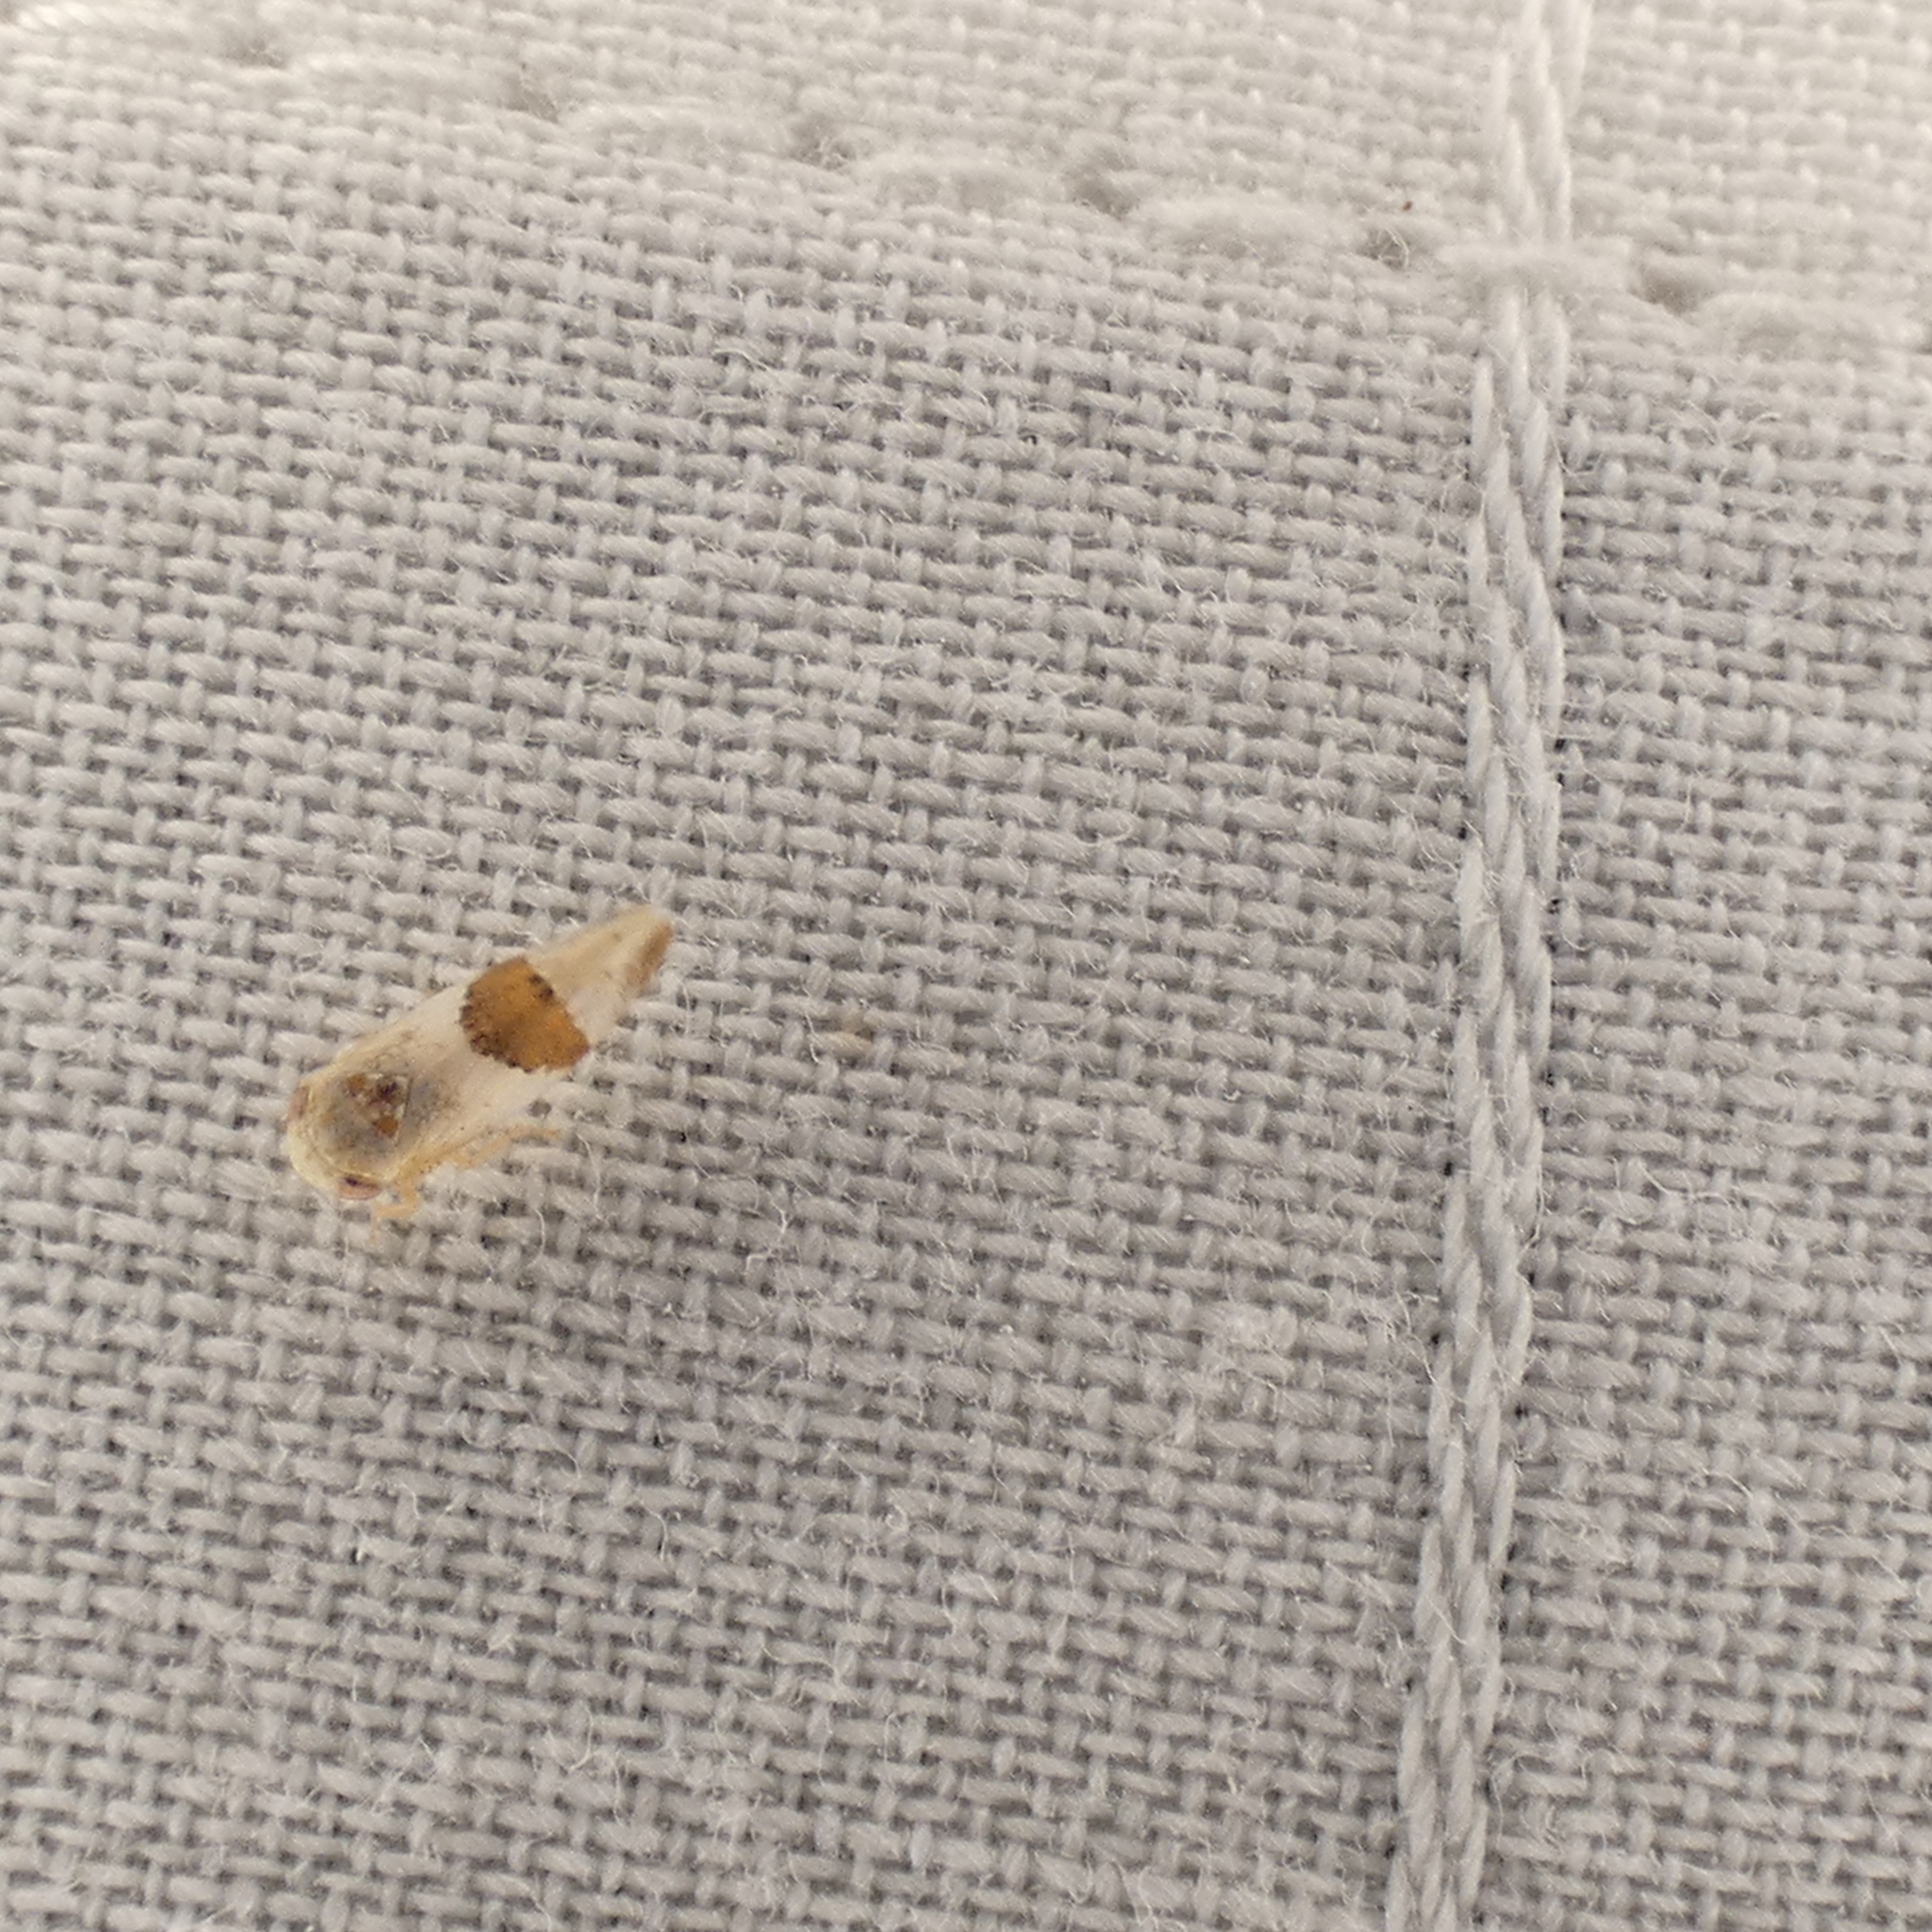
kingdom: Animalia
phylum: Arthropoda
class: Insecta
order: Hemiptera
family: Cicadellidae
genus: Norvellina
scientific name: Norvellina seminuda
